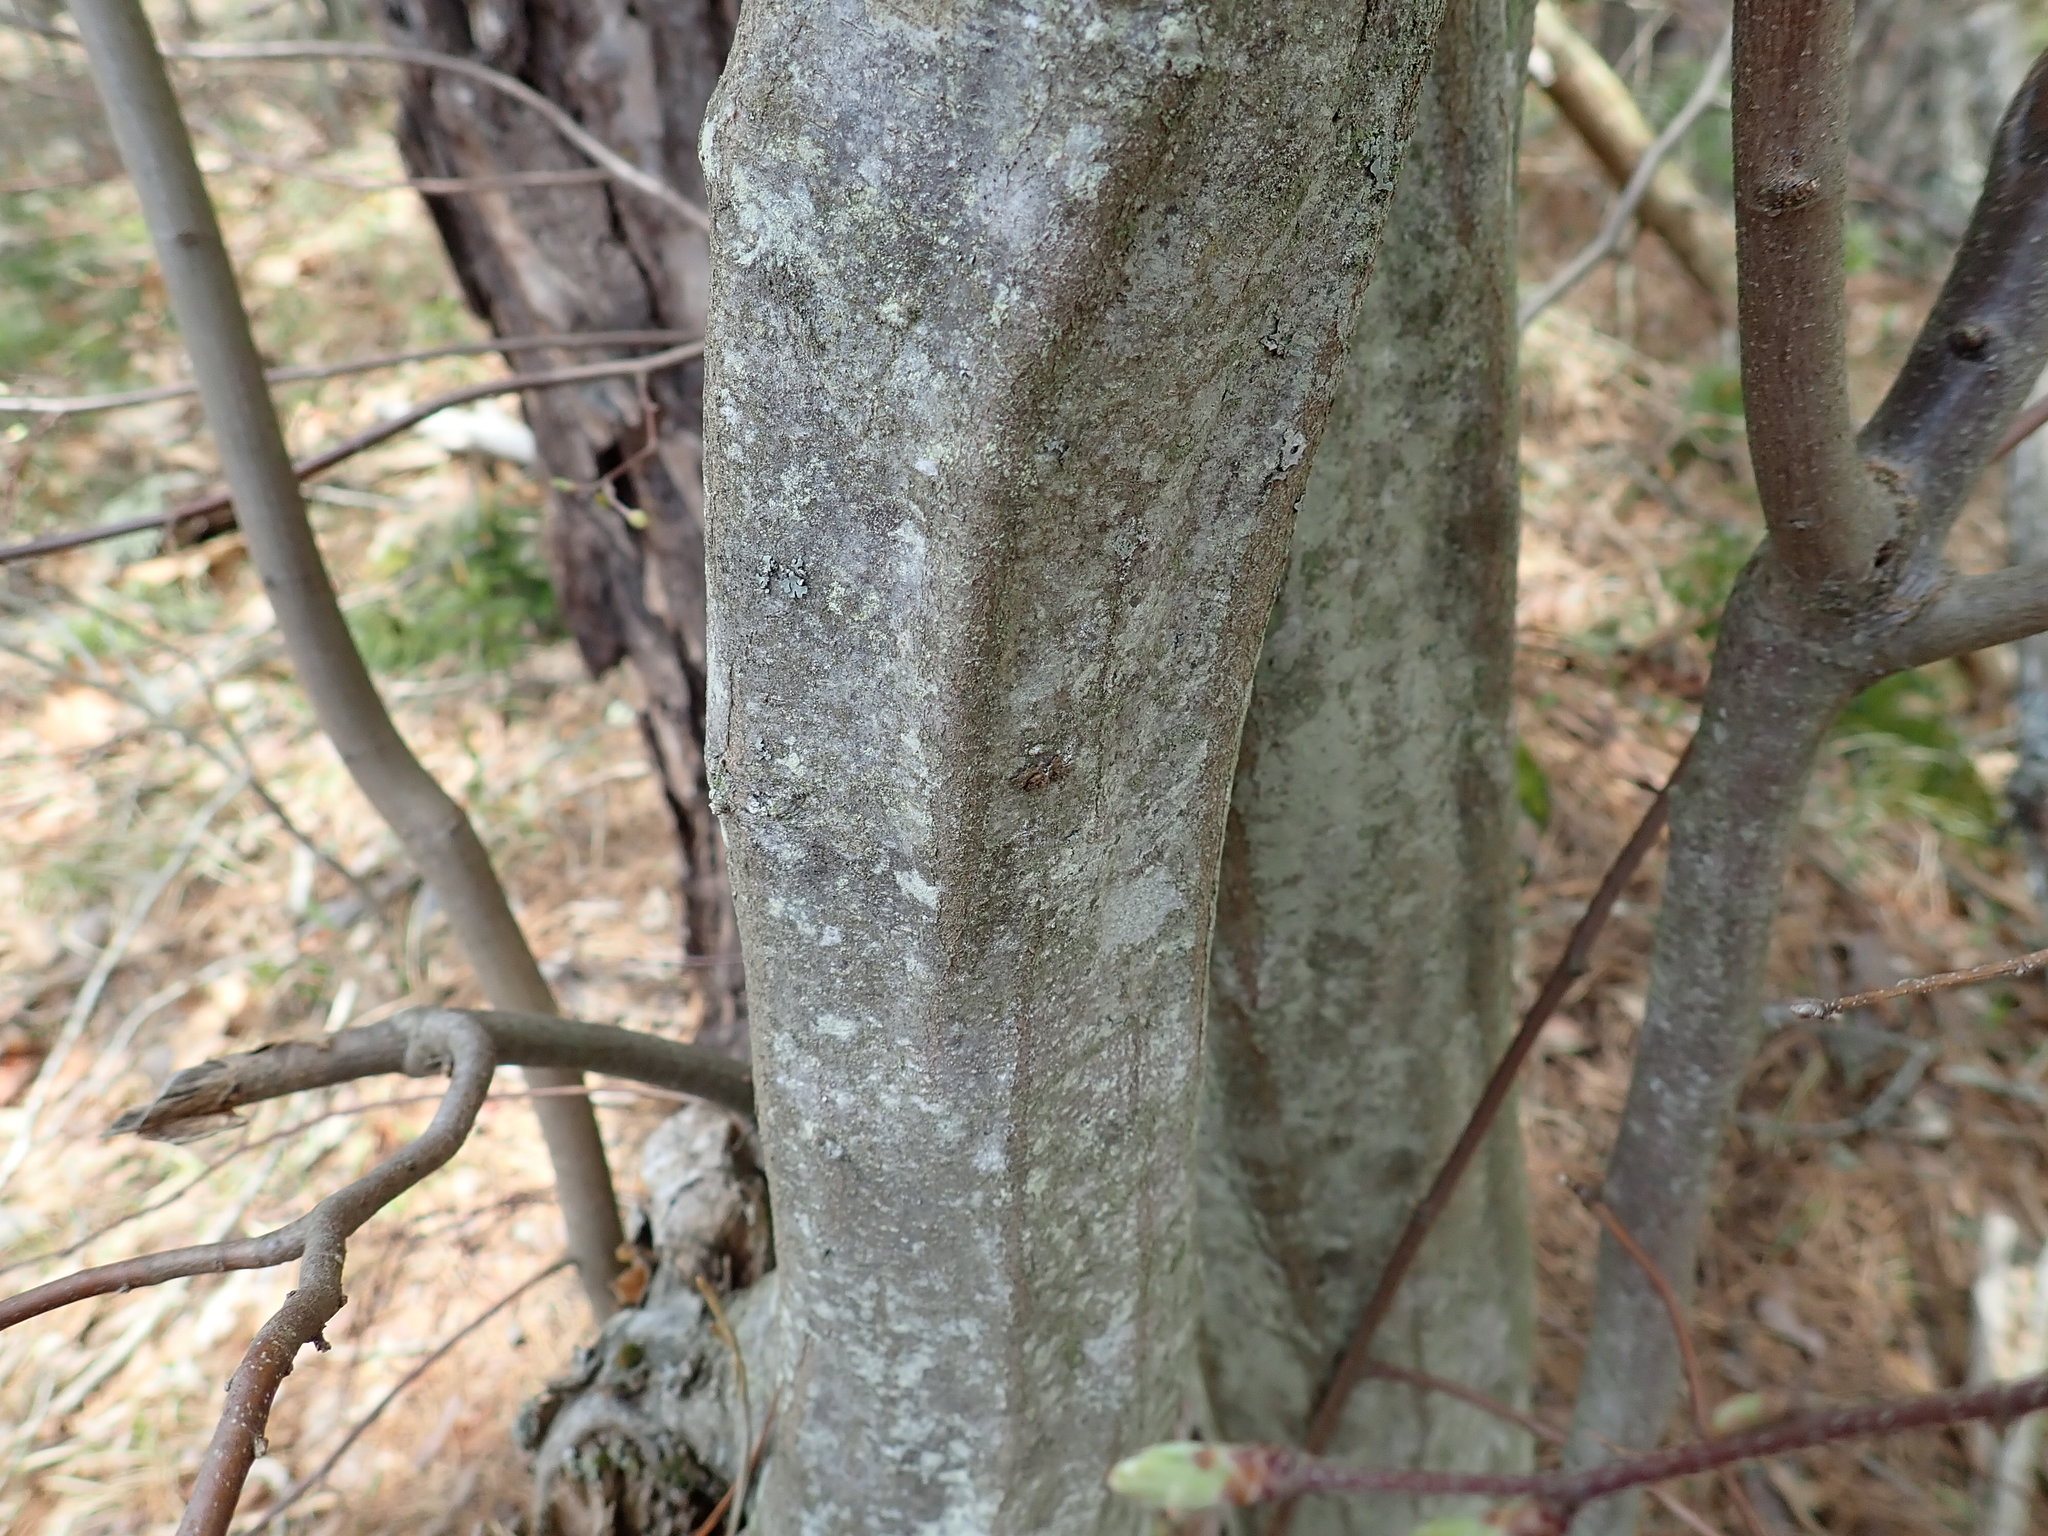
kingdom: Plantae
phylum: Tracheophyta
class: Magnoliopsida
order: Fagales
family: Betulaceae
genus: Carpinus
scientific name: Carpinus caroliniana
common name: American hornbeam
